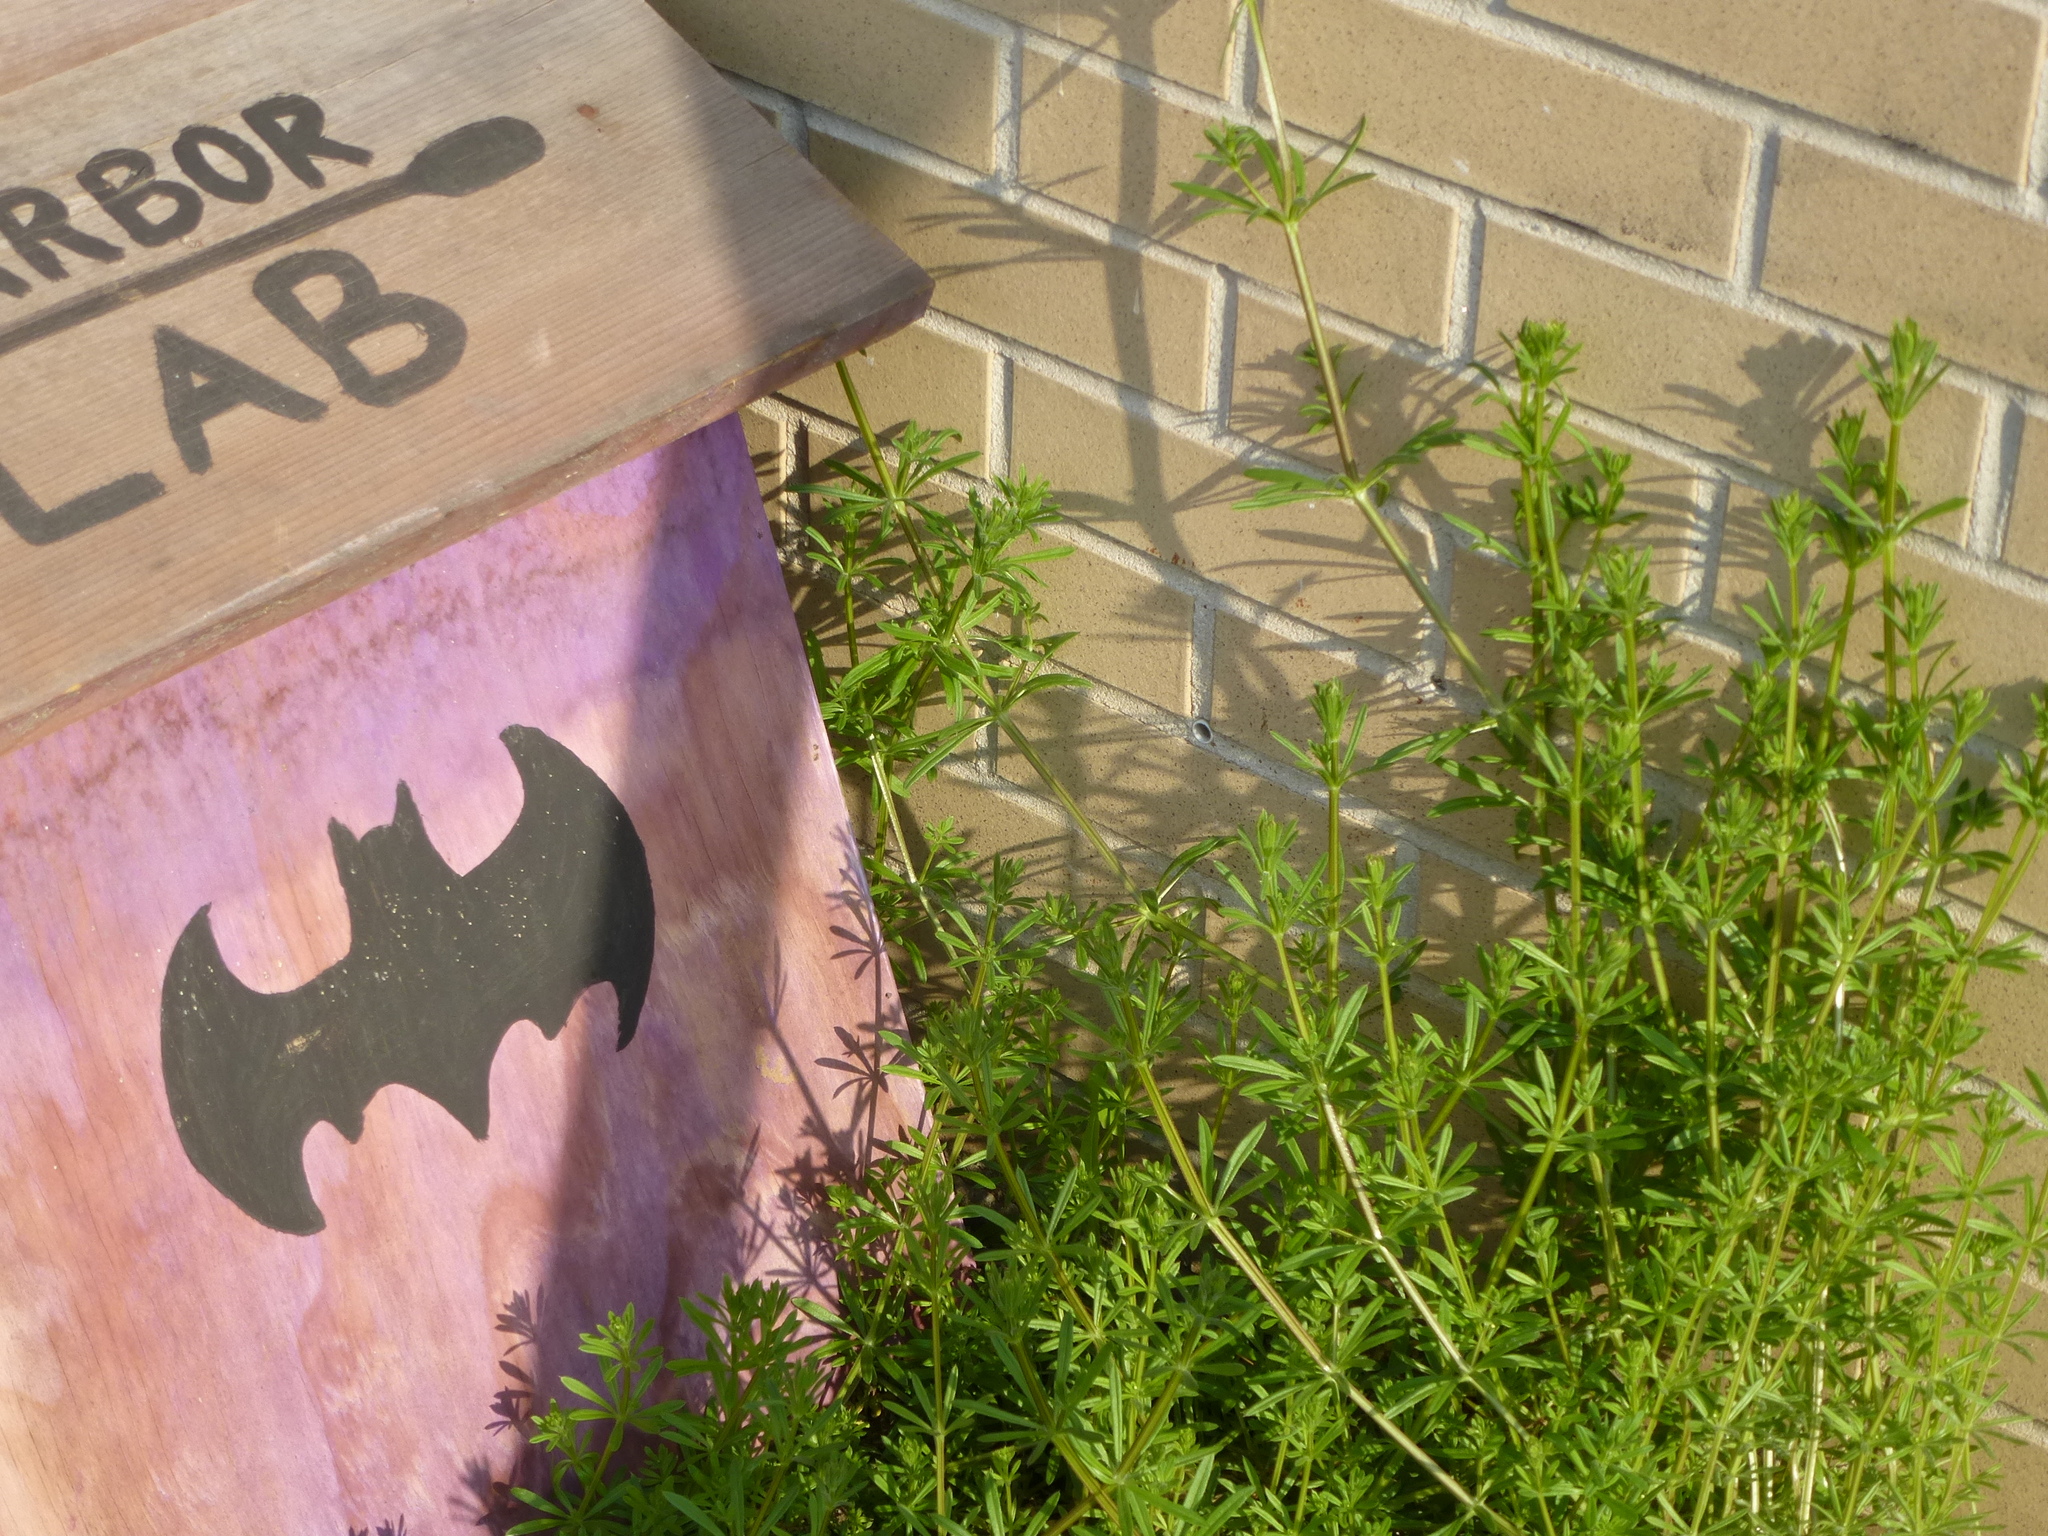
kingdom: Plantae
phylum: Tracheophyta
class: Magnoliopsida
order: Gentianales
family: Rubiaceae
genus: Galium
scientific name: Galium aparine
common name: Cleavers
